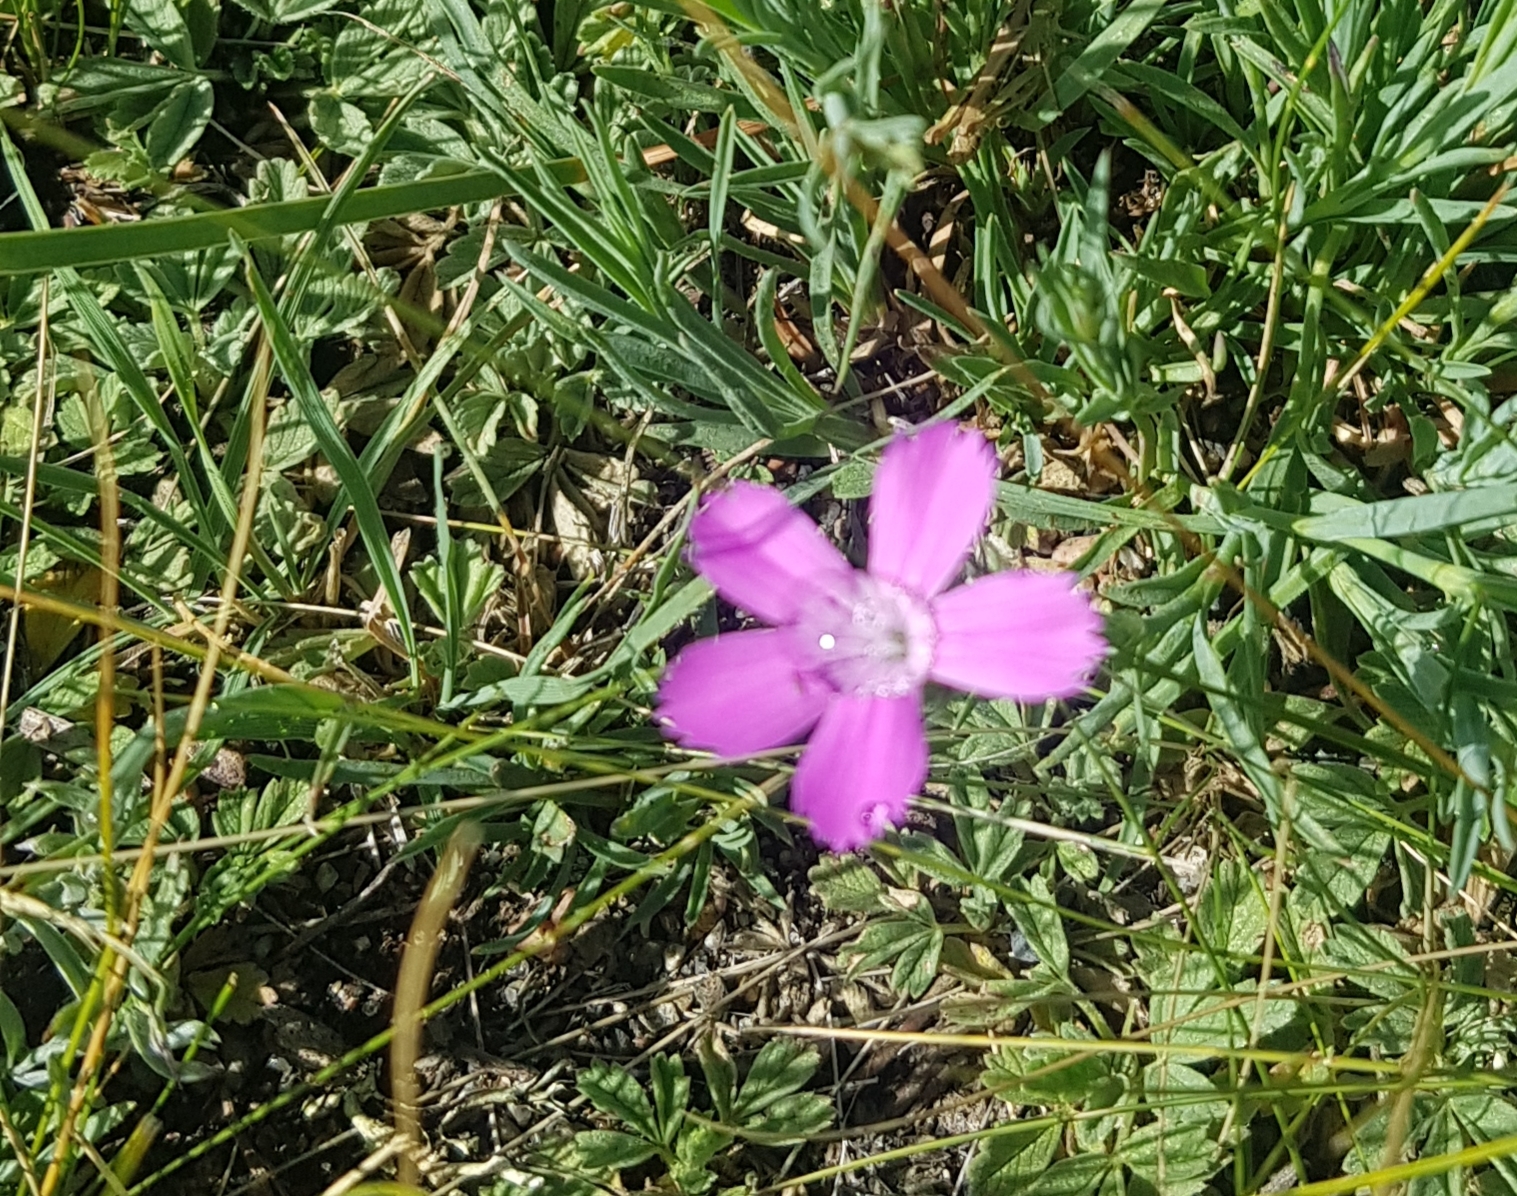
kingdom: Plantae
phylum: Tracheophyta
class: Magnoliopsida
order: Caryophyllales
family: Caryophyllaceae
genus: Dianthus
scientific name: Dianthus chinensis
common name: Rainbow pink
